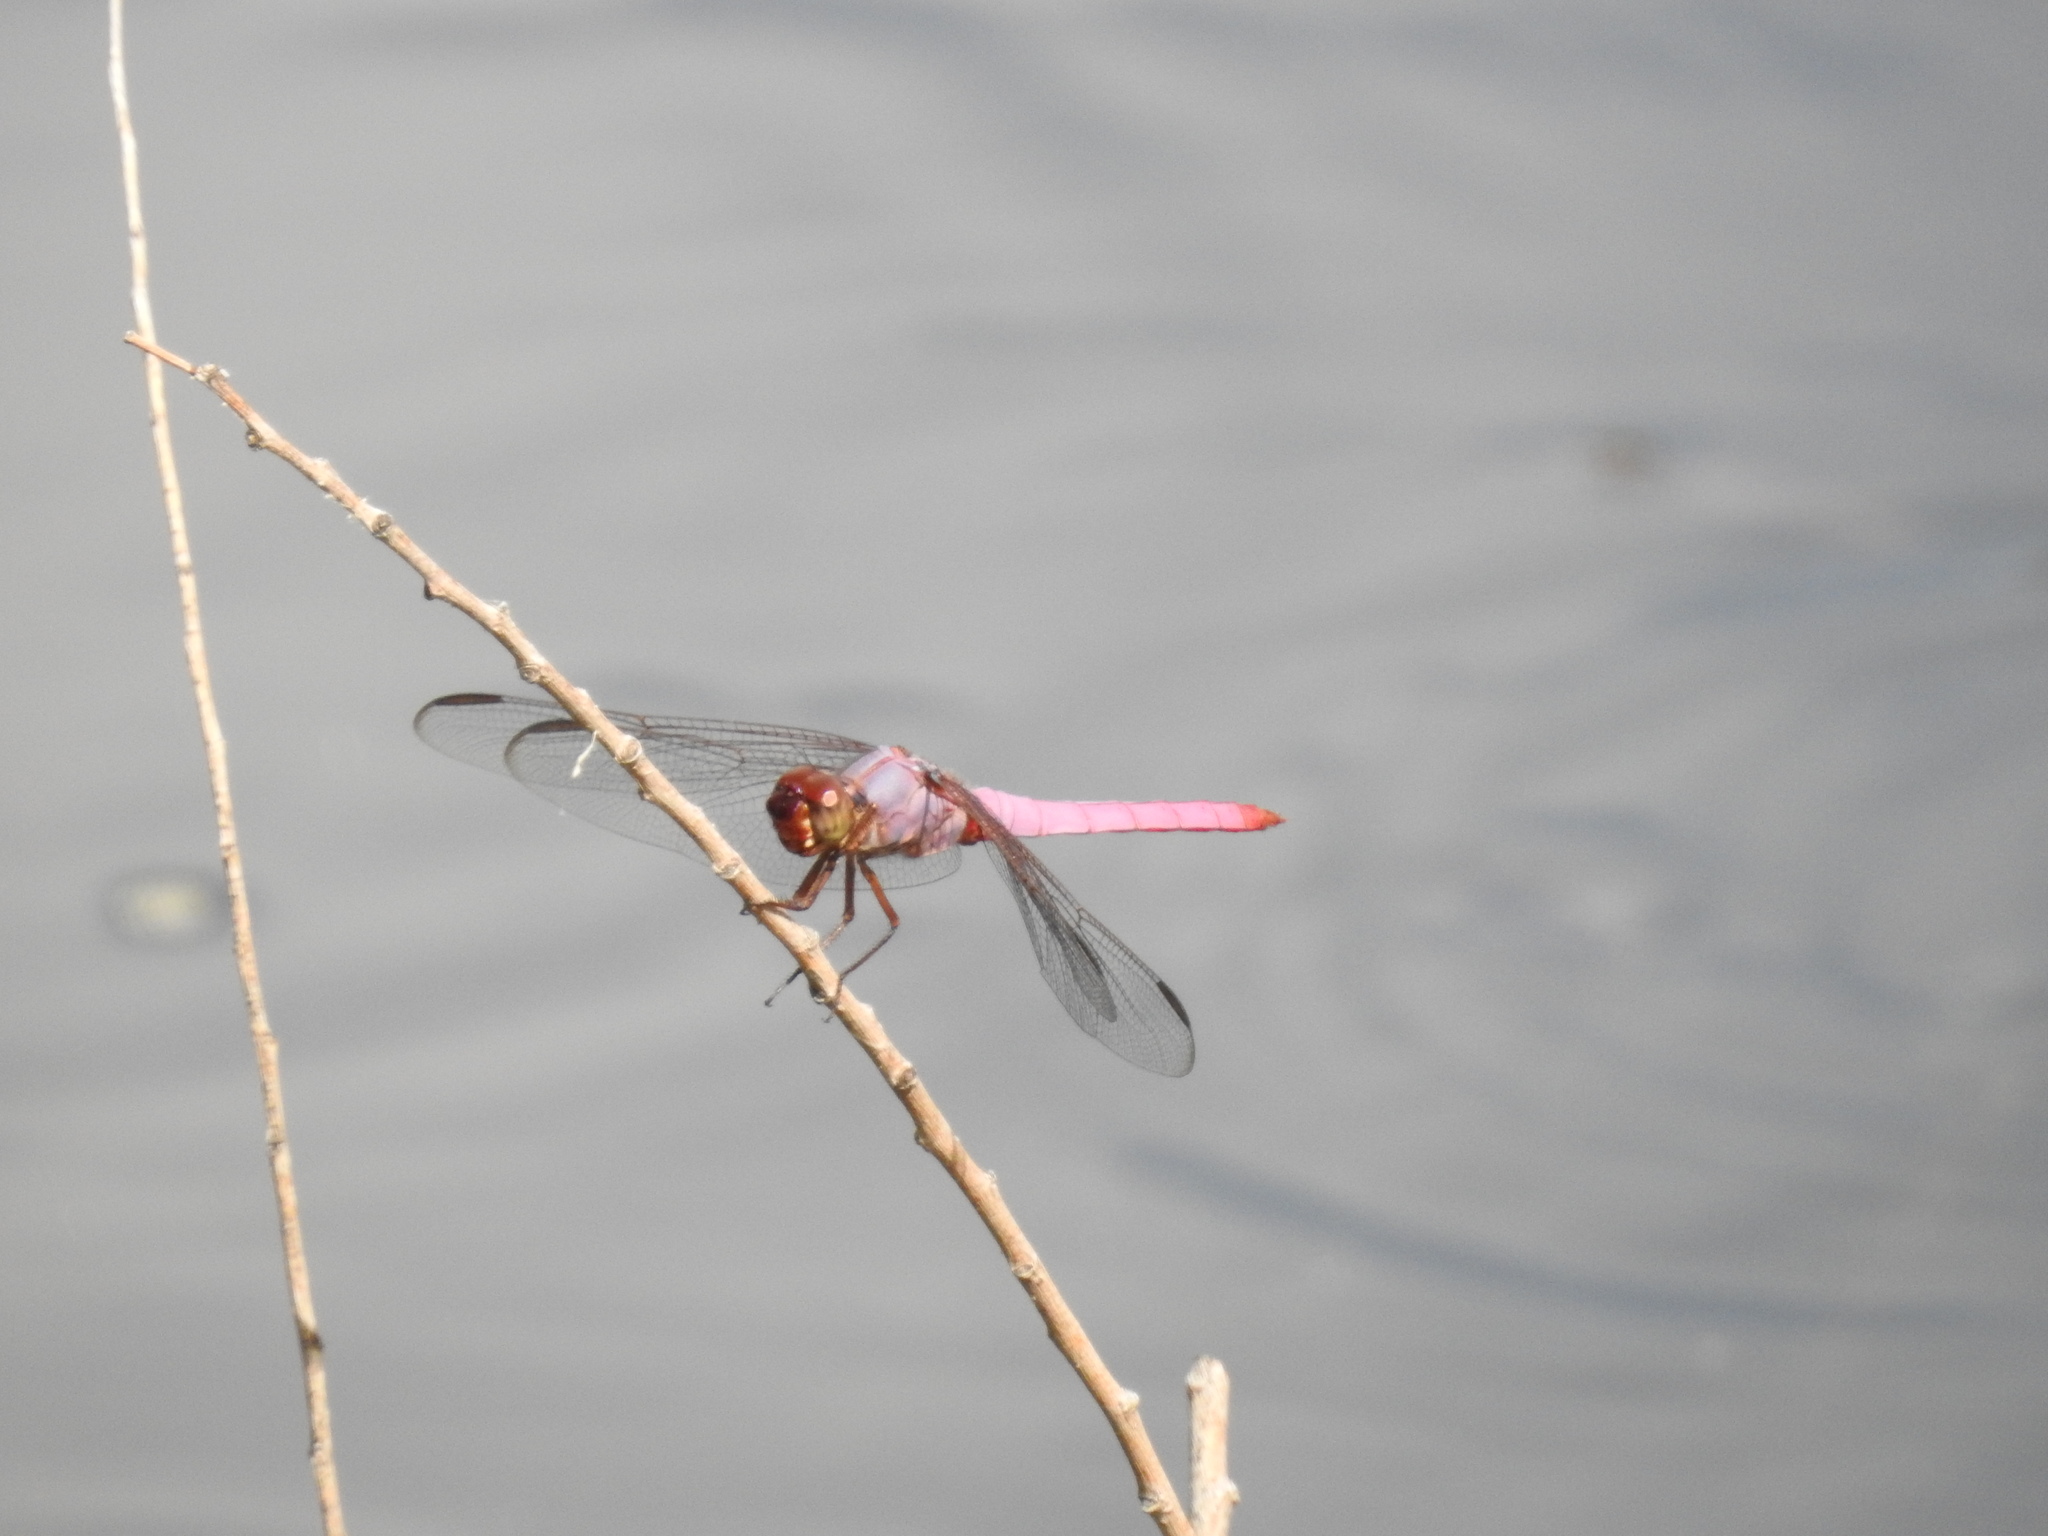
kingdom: Animalia
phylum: Arthropoda
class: Insecta
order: Odonata
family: Libellulidae
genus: Orthemis
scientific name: Orthemis ferruginea
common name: Roseate skimmer
